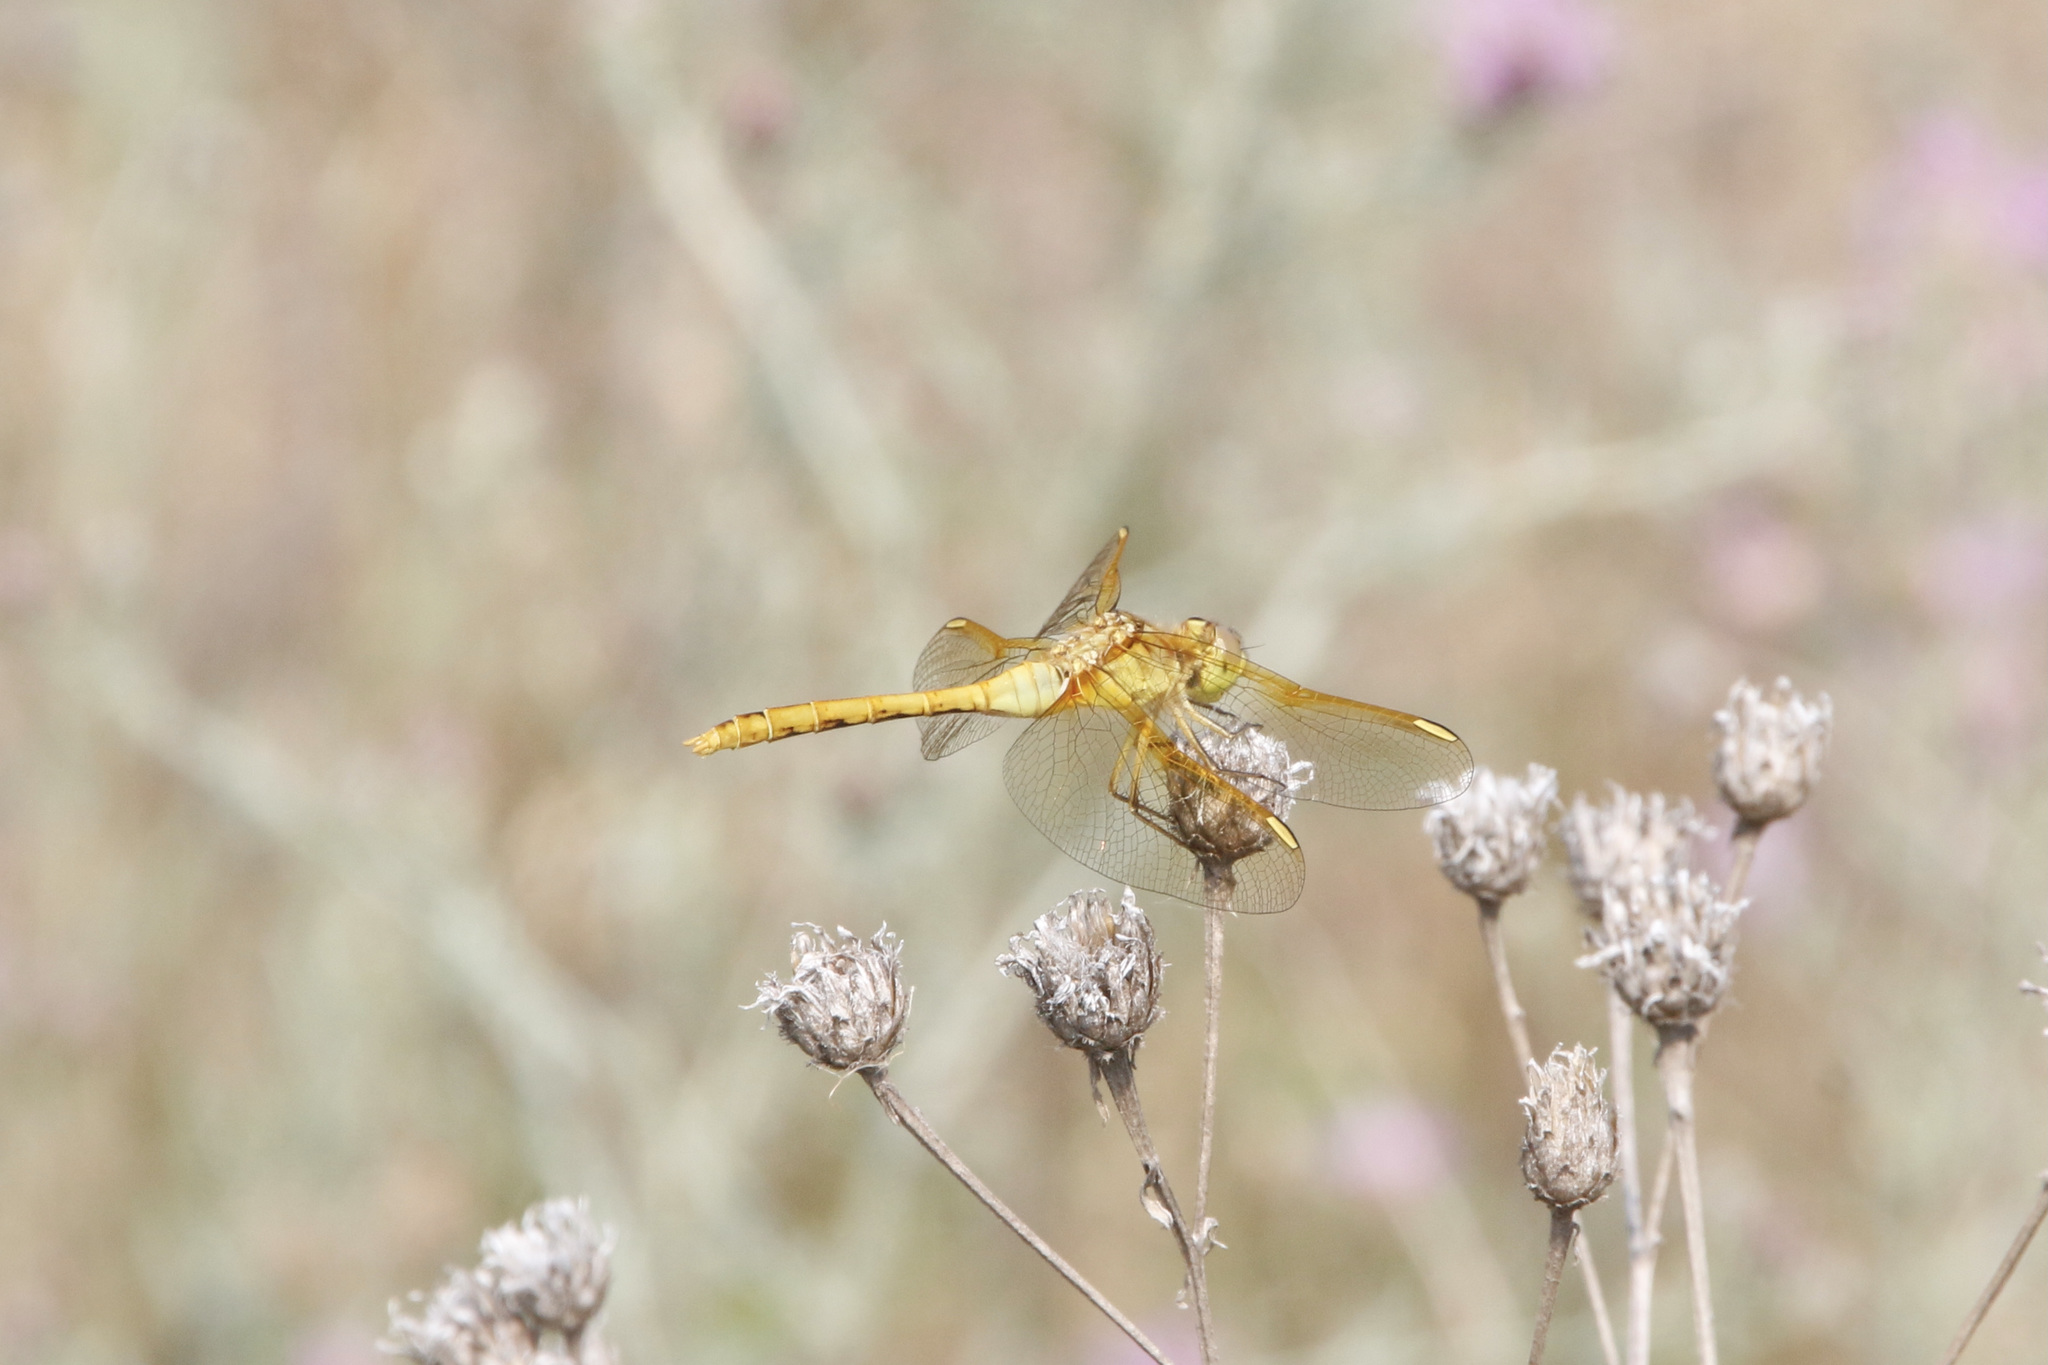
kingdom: Animalia
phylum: Arthropoda
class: Insecta
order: Odonata
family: Libellulidae
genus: Sympetrum
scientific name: Sympetrum costiferum
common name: Saffron-winged meadowhawk
